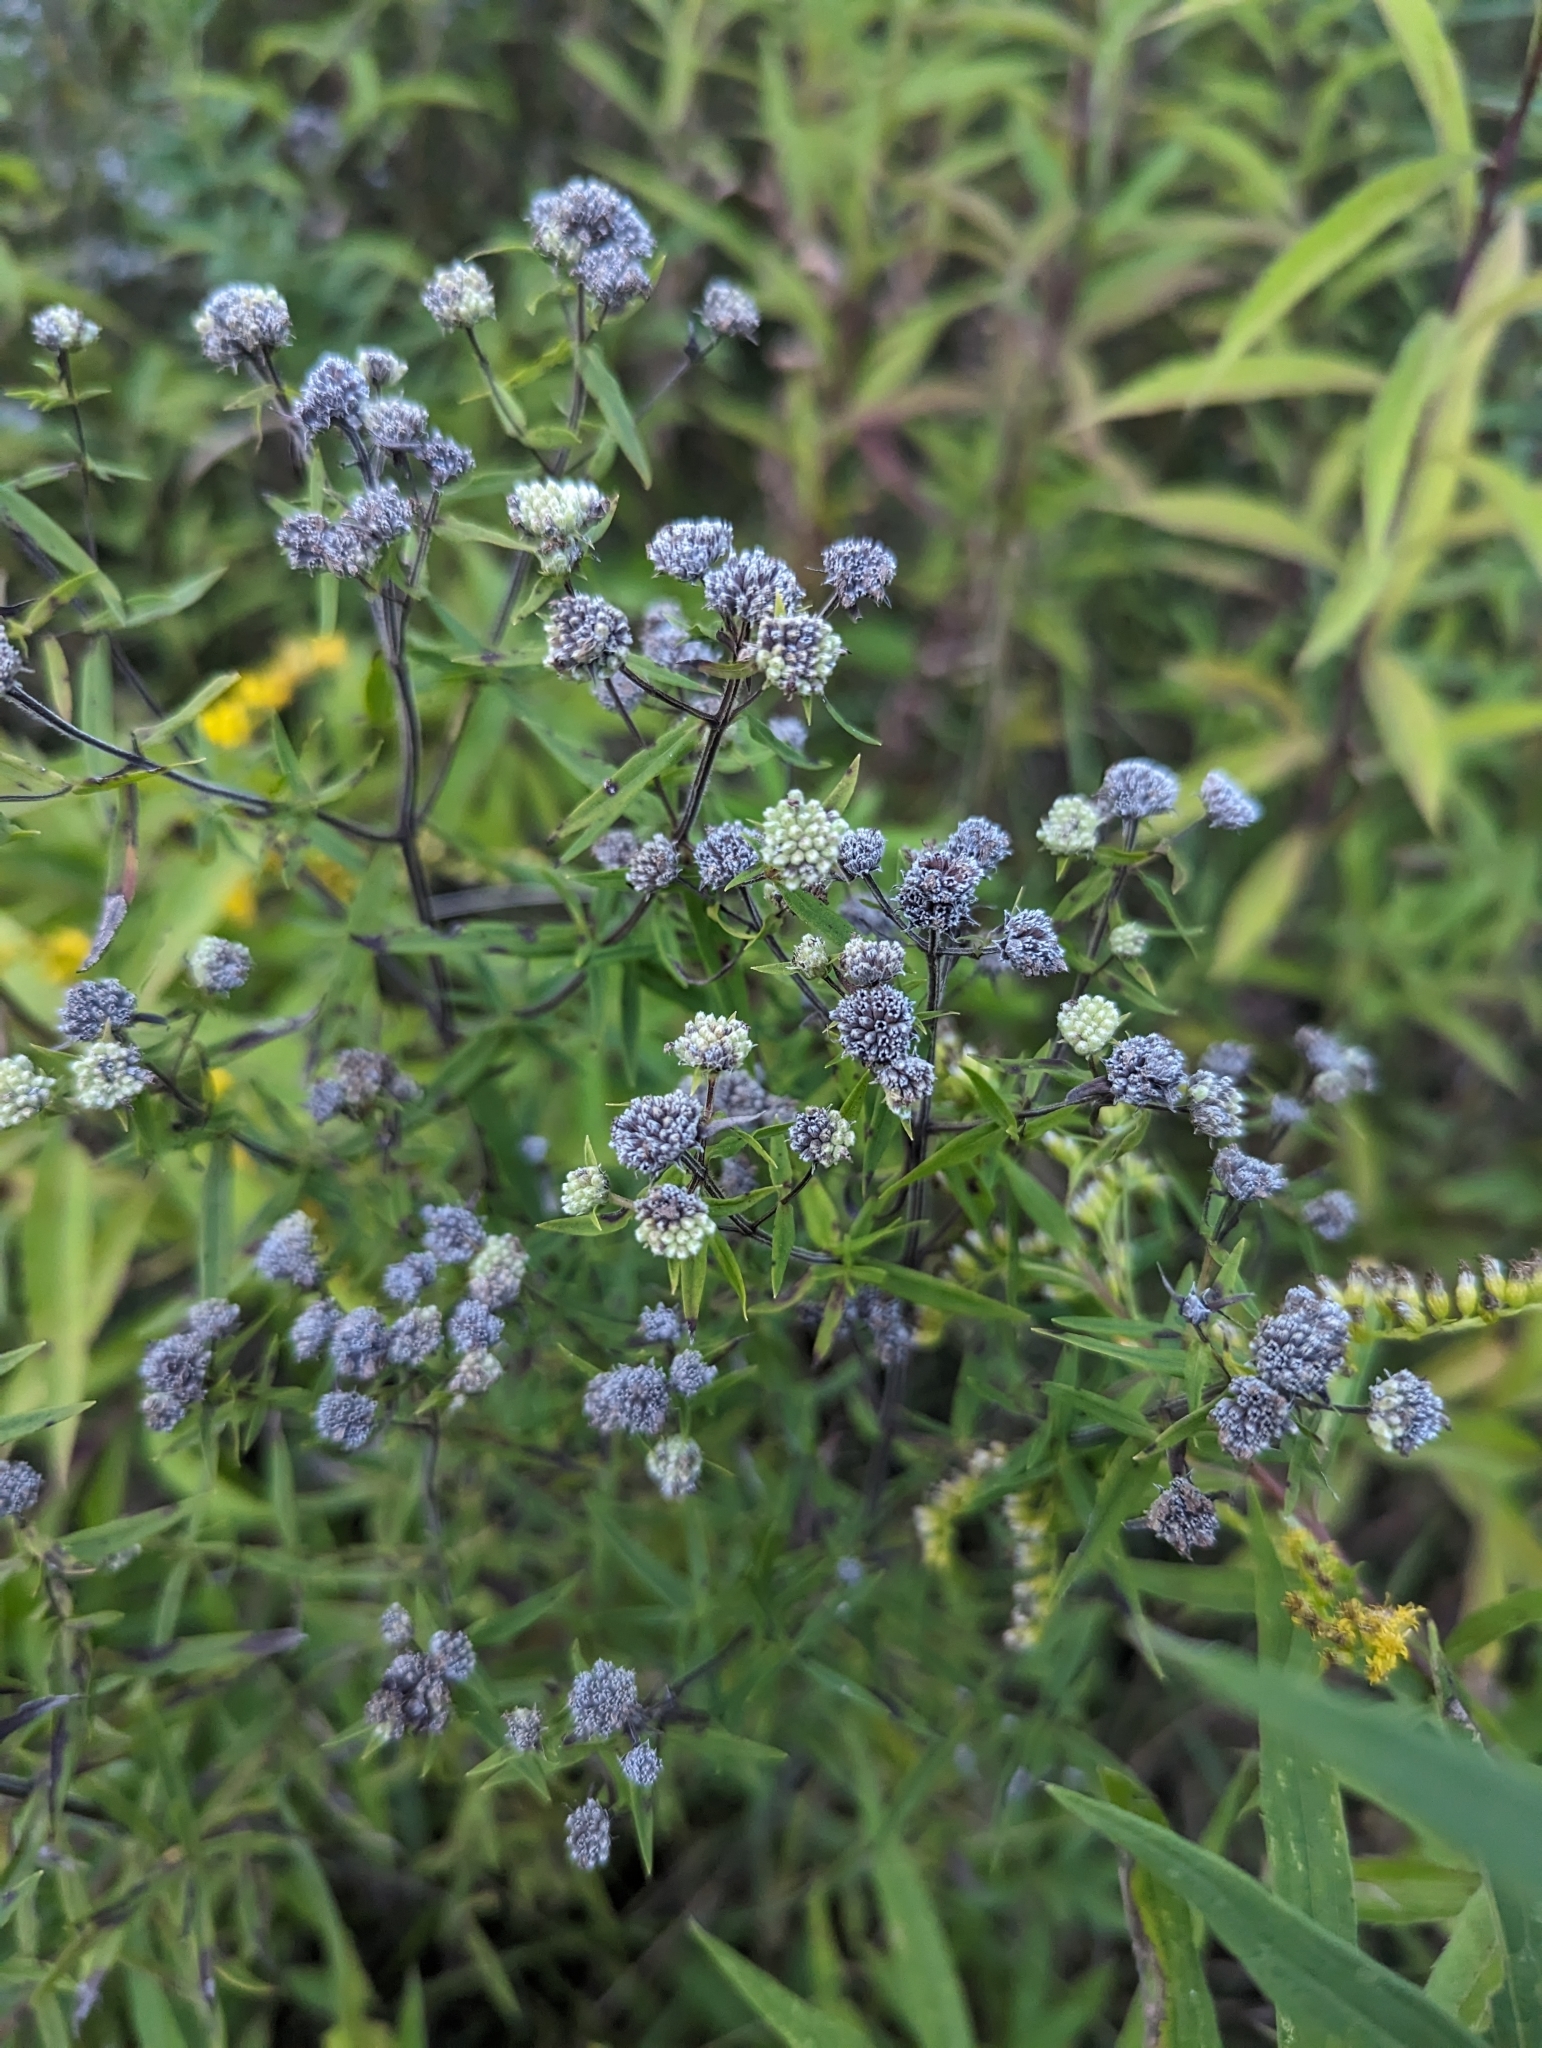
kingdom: Plantae
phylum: Tracheophyta
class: Magnoliopsida
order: Lamiales
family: Lamiaceae
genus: Pycnanthemum
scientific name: Pycnanthemum virginianum
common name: Virginia mountain-mint
